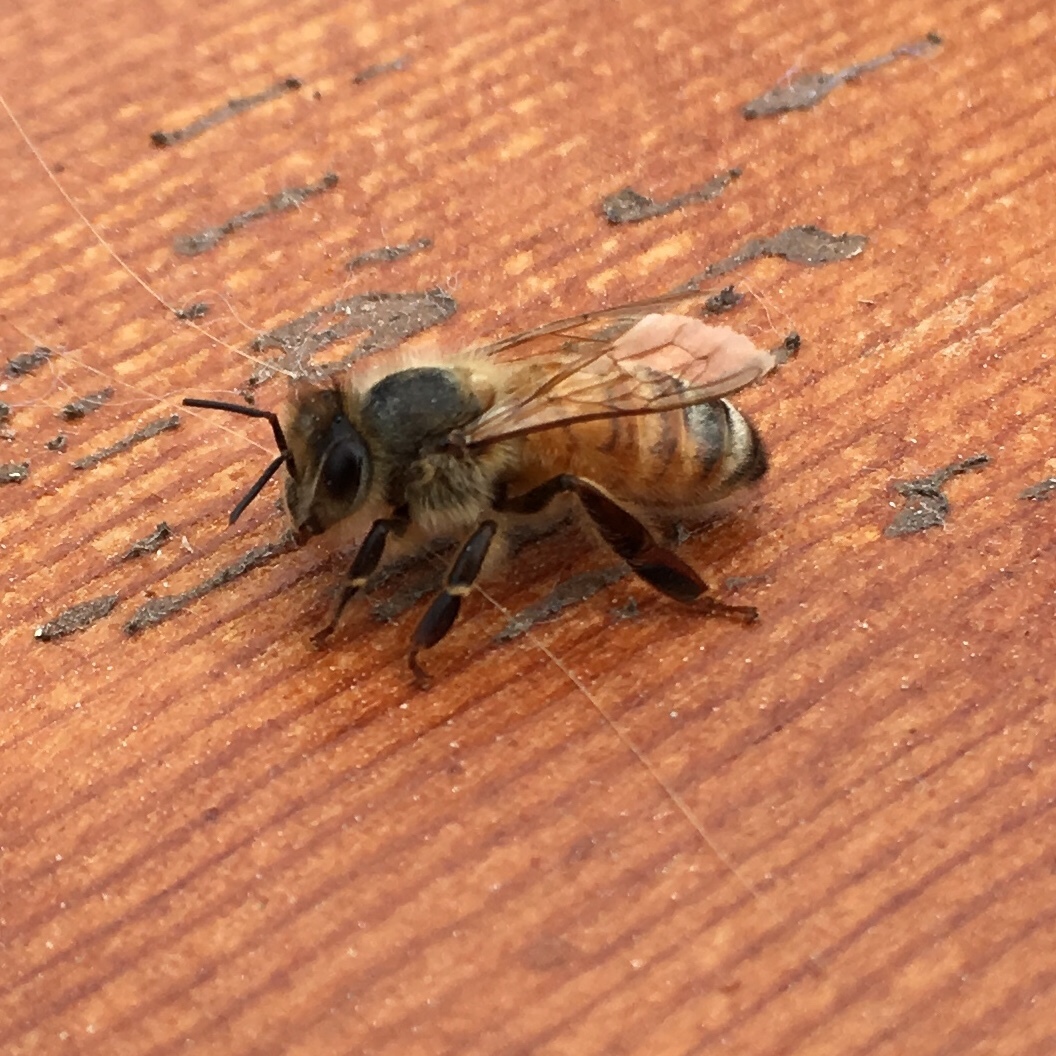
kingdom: Animalia
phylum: Arthropoda
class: Insecta
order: Hymenoptera
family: Apidae
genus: Apis
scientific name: Apis mellifera
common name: Honey bee
